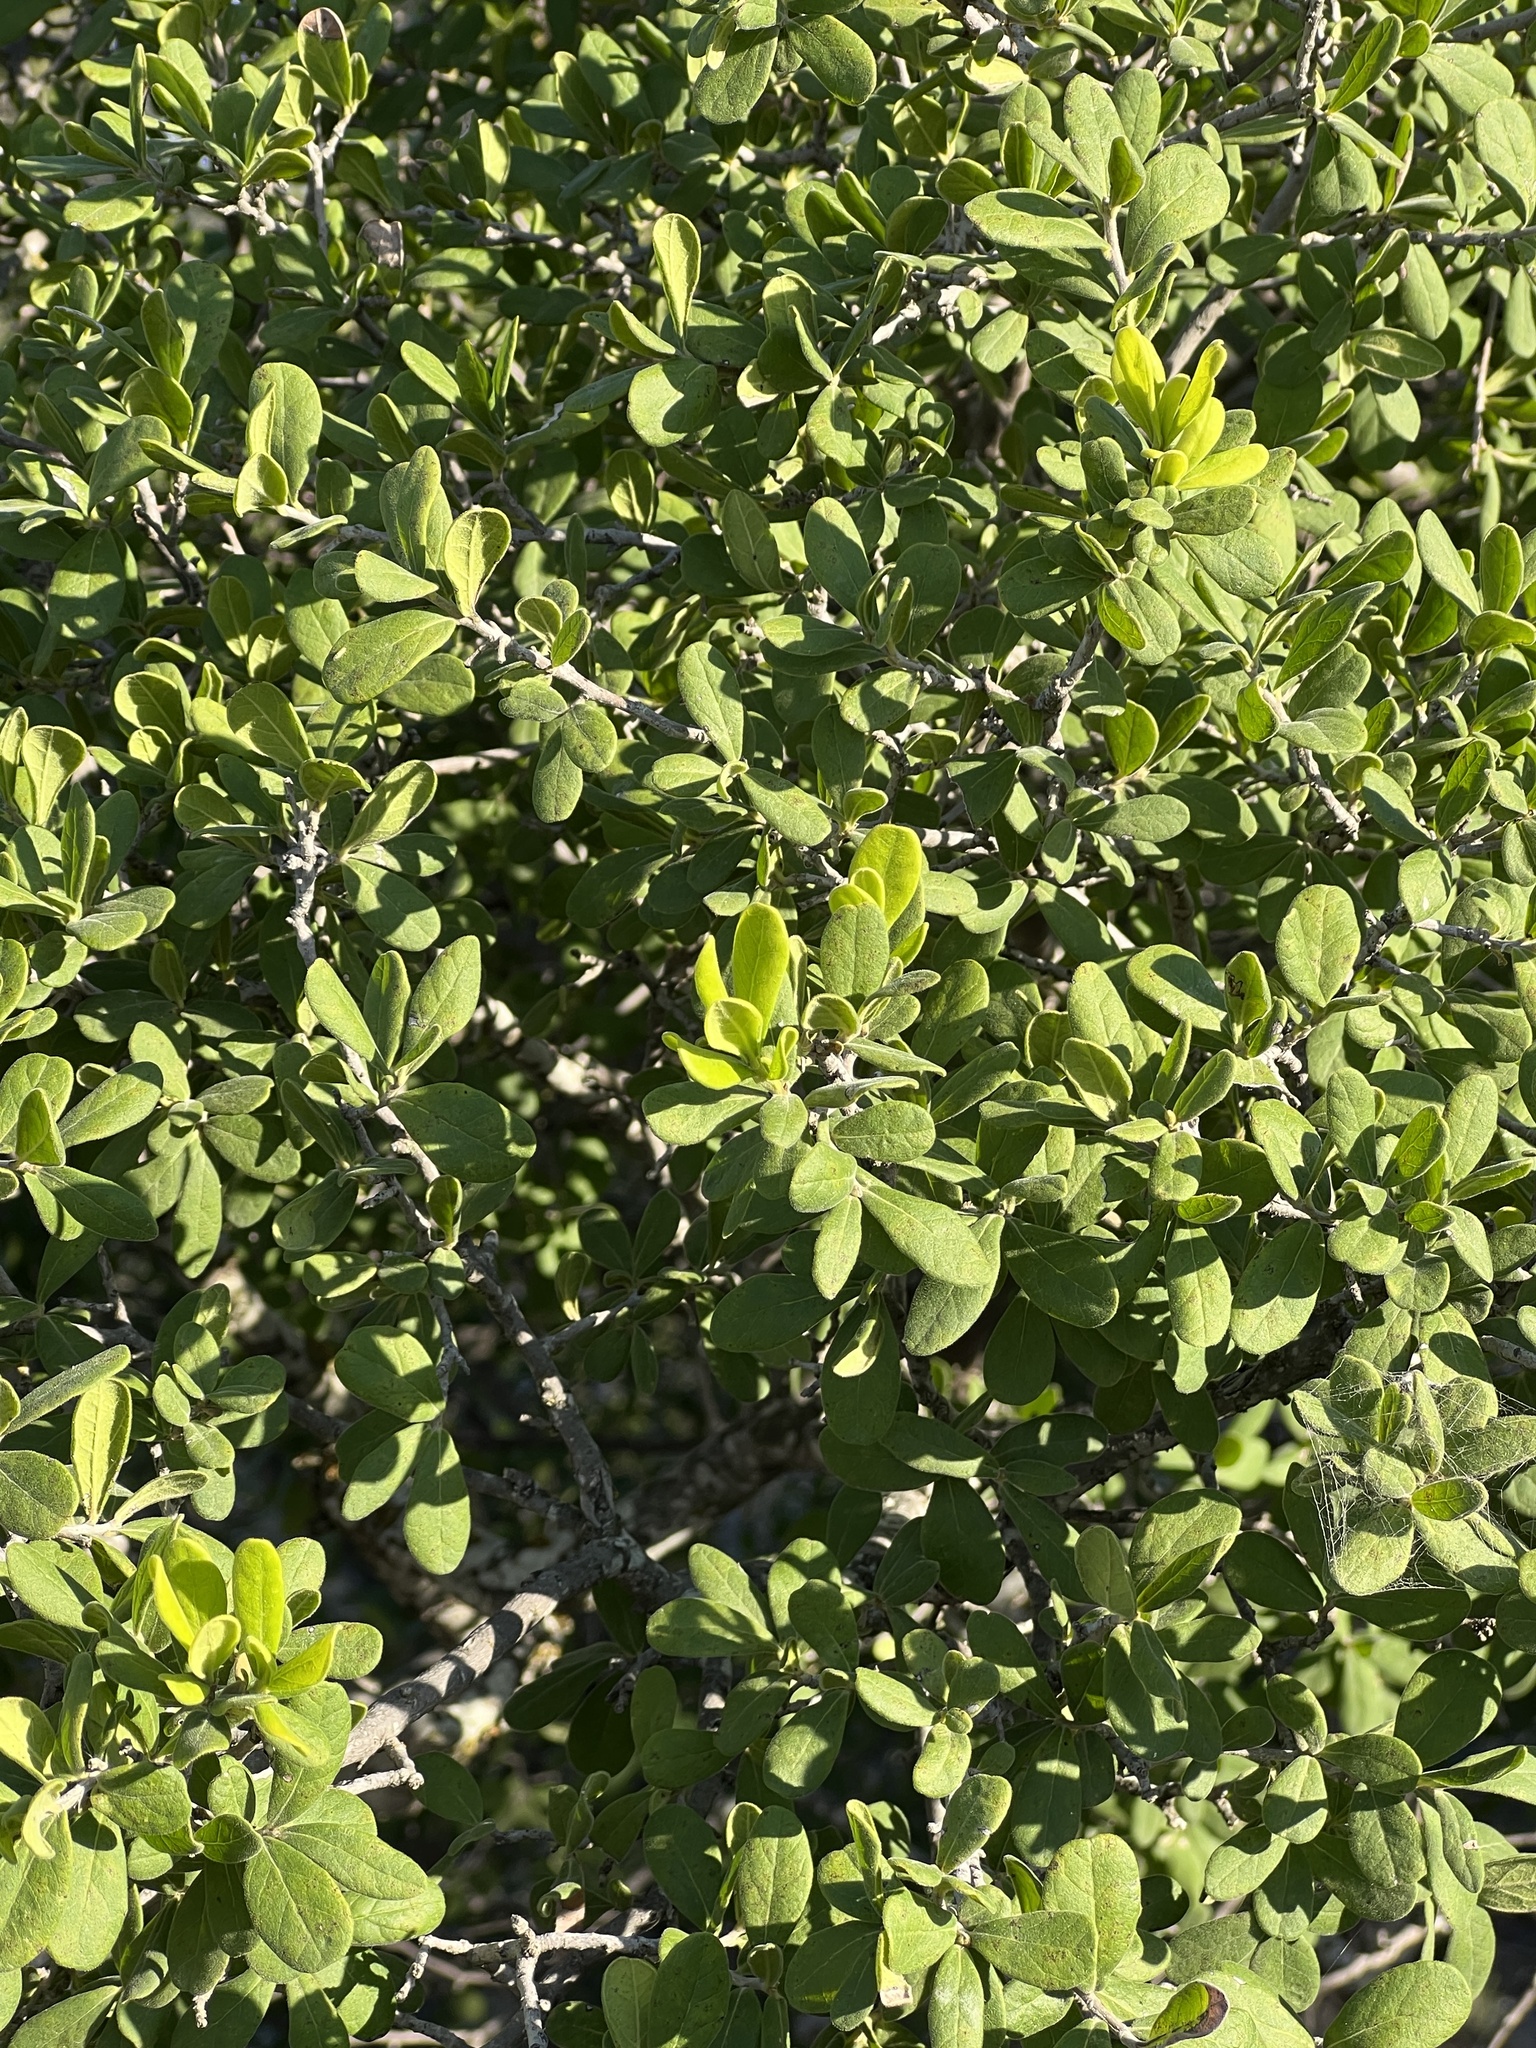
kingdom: Plantae
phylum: Tracheophyta
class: Magnoliopsida
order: Ericales
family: Ebenaceae
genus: Diospyros
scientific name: Diospyros texana
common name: Texas persimmon
